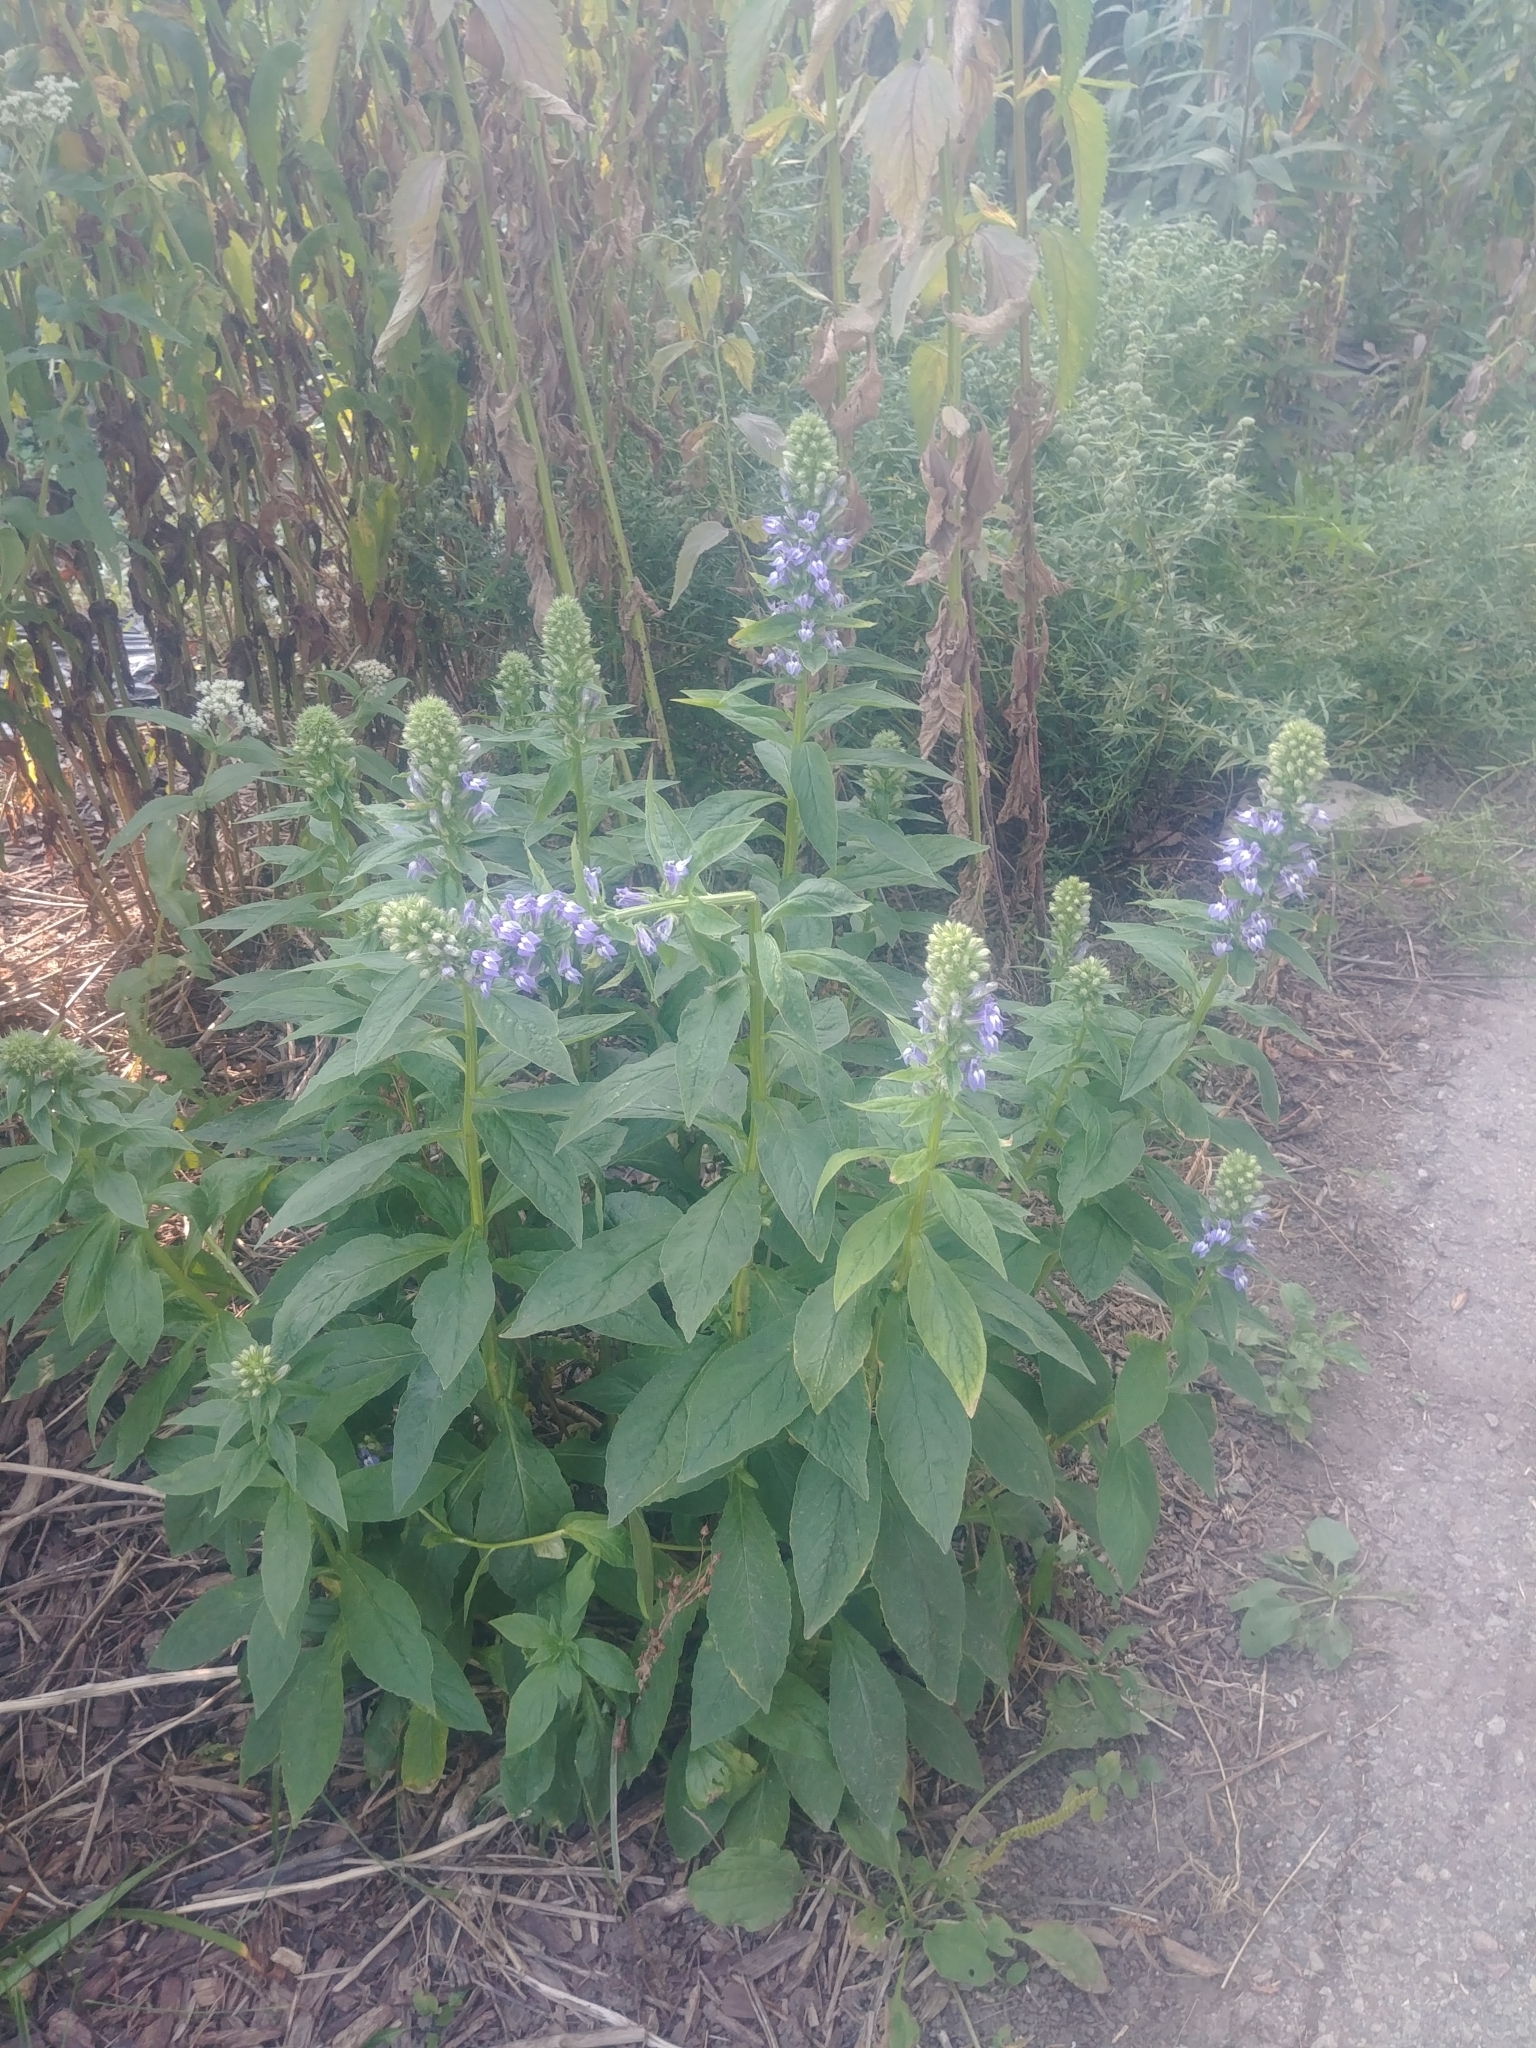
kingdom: Plantae
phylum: Tracheophyta
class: Magnoliopsida
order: Asterales
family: Campanulaceae
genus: Lobelia
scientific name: Lobelia siphilitica
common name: Great lobelia
